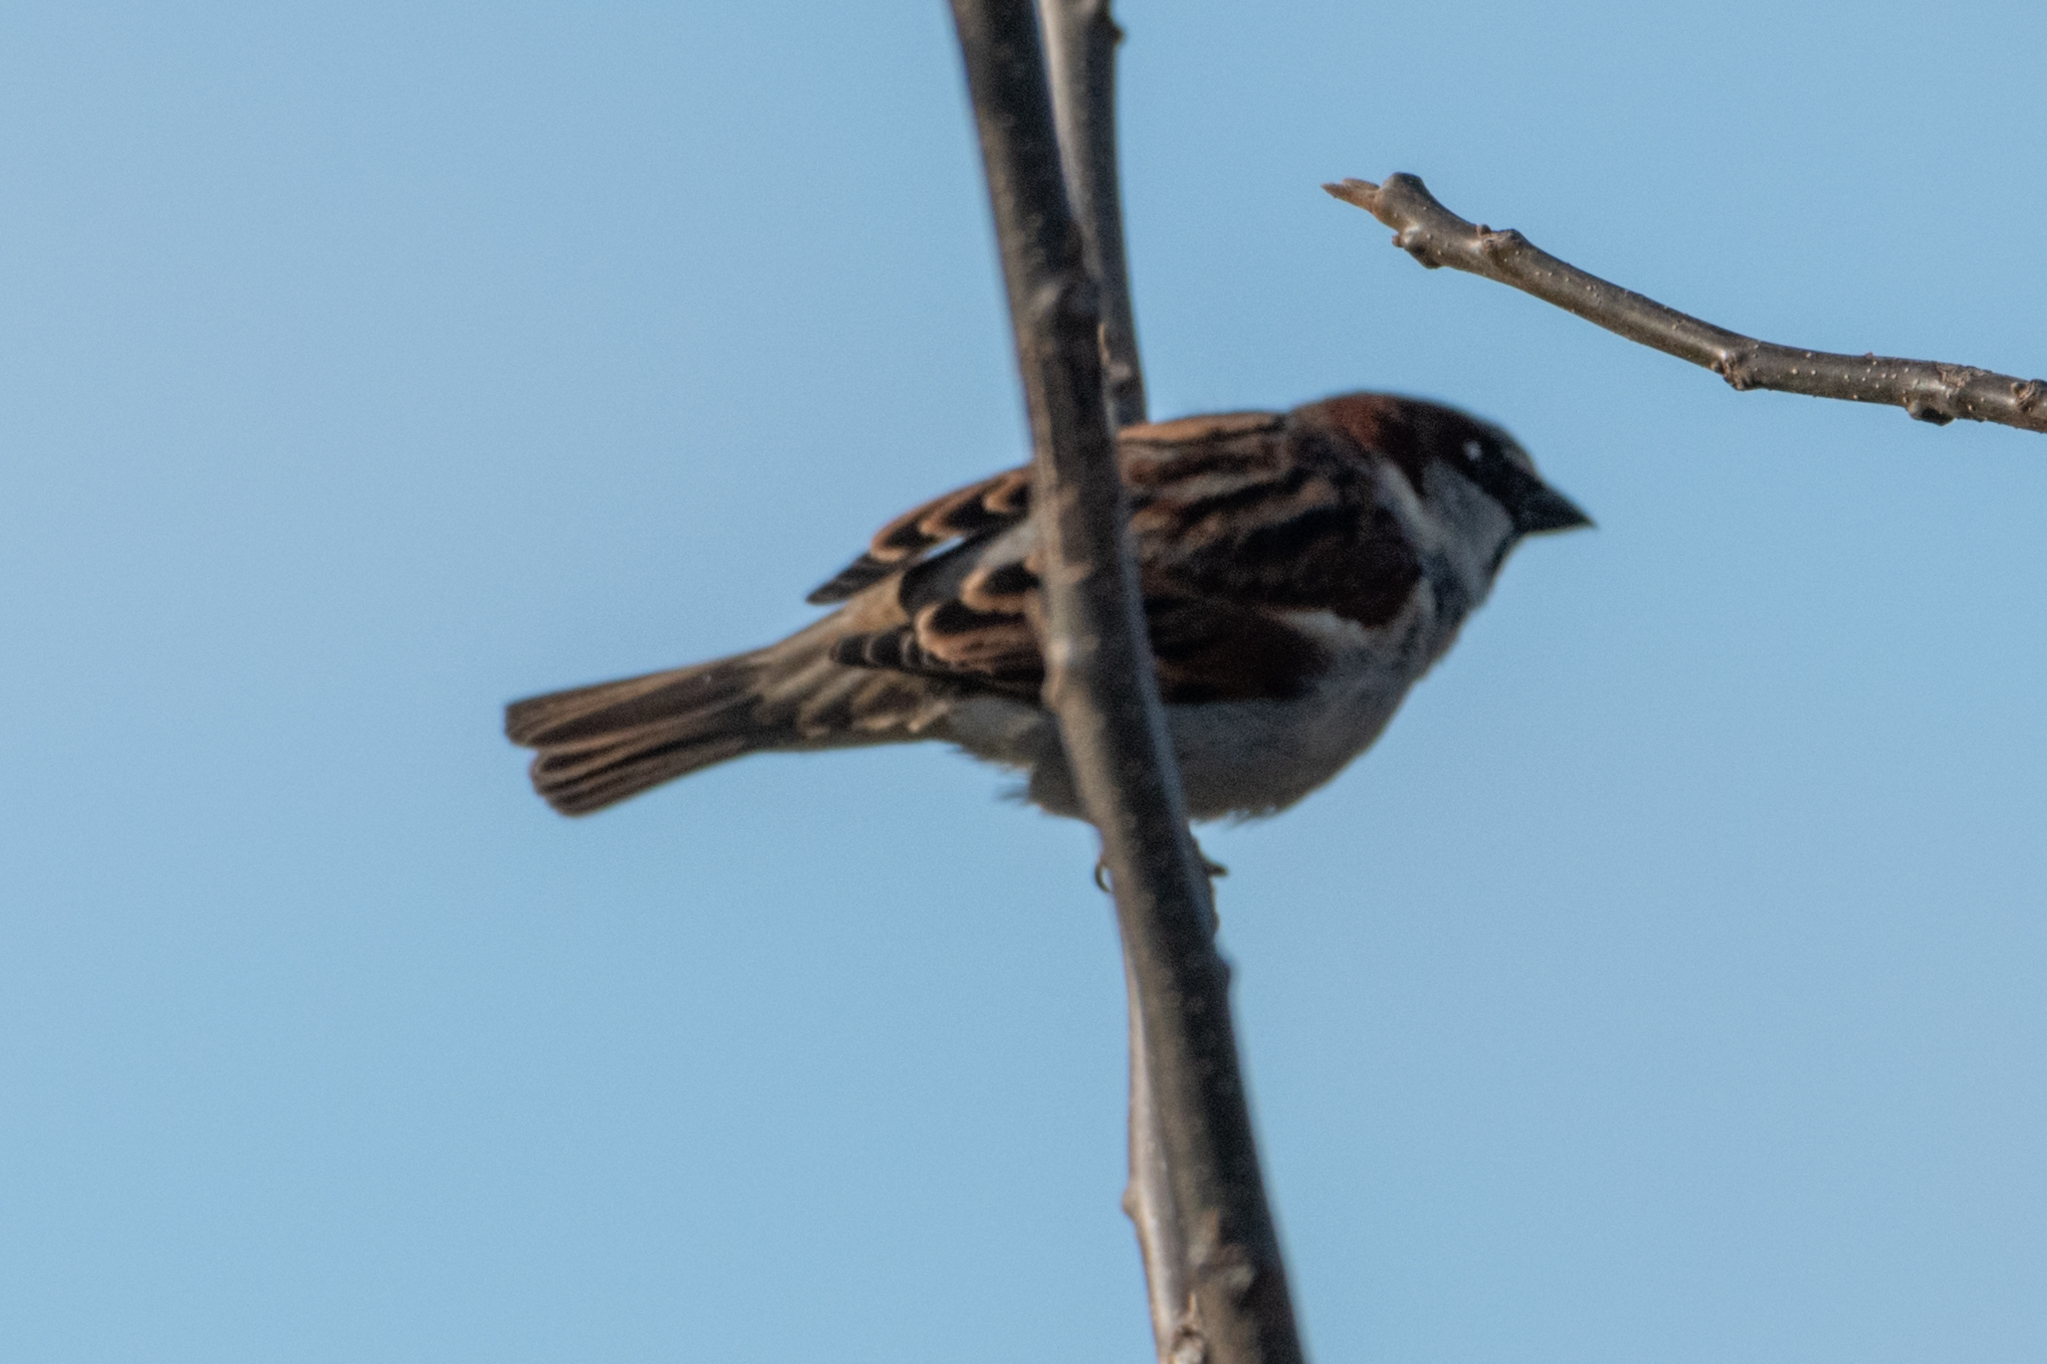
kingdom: Animalia
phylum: Chordata
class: Aves
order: Passeriformes
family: Passeridae
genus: Passer
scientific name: Passer domesticus
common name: House sparrow
